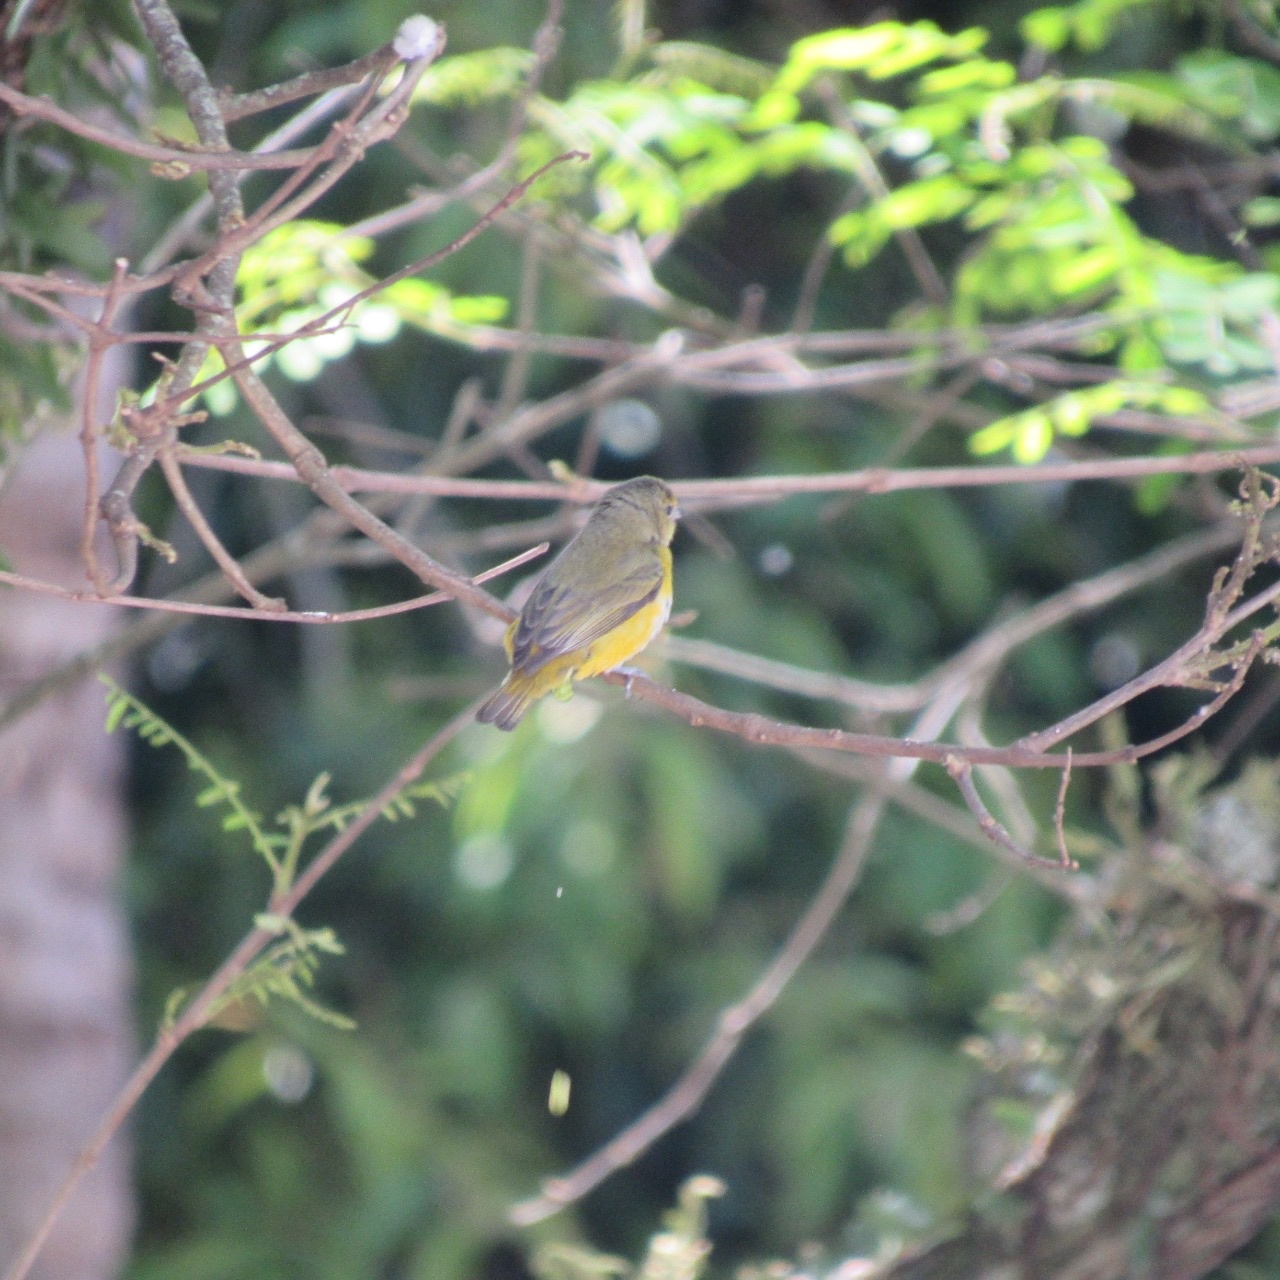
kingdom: Animalia
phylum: Chordata
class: Aves
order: Passeriformes
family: Fringillidae
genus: Euphonia
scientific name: Euphonia chlorotica
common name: Purple-throated euphonia
